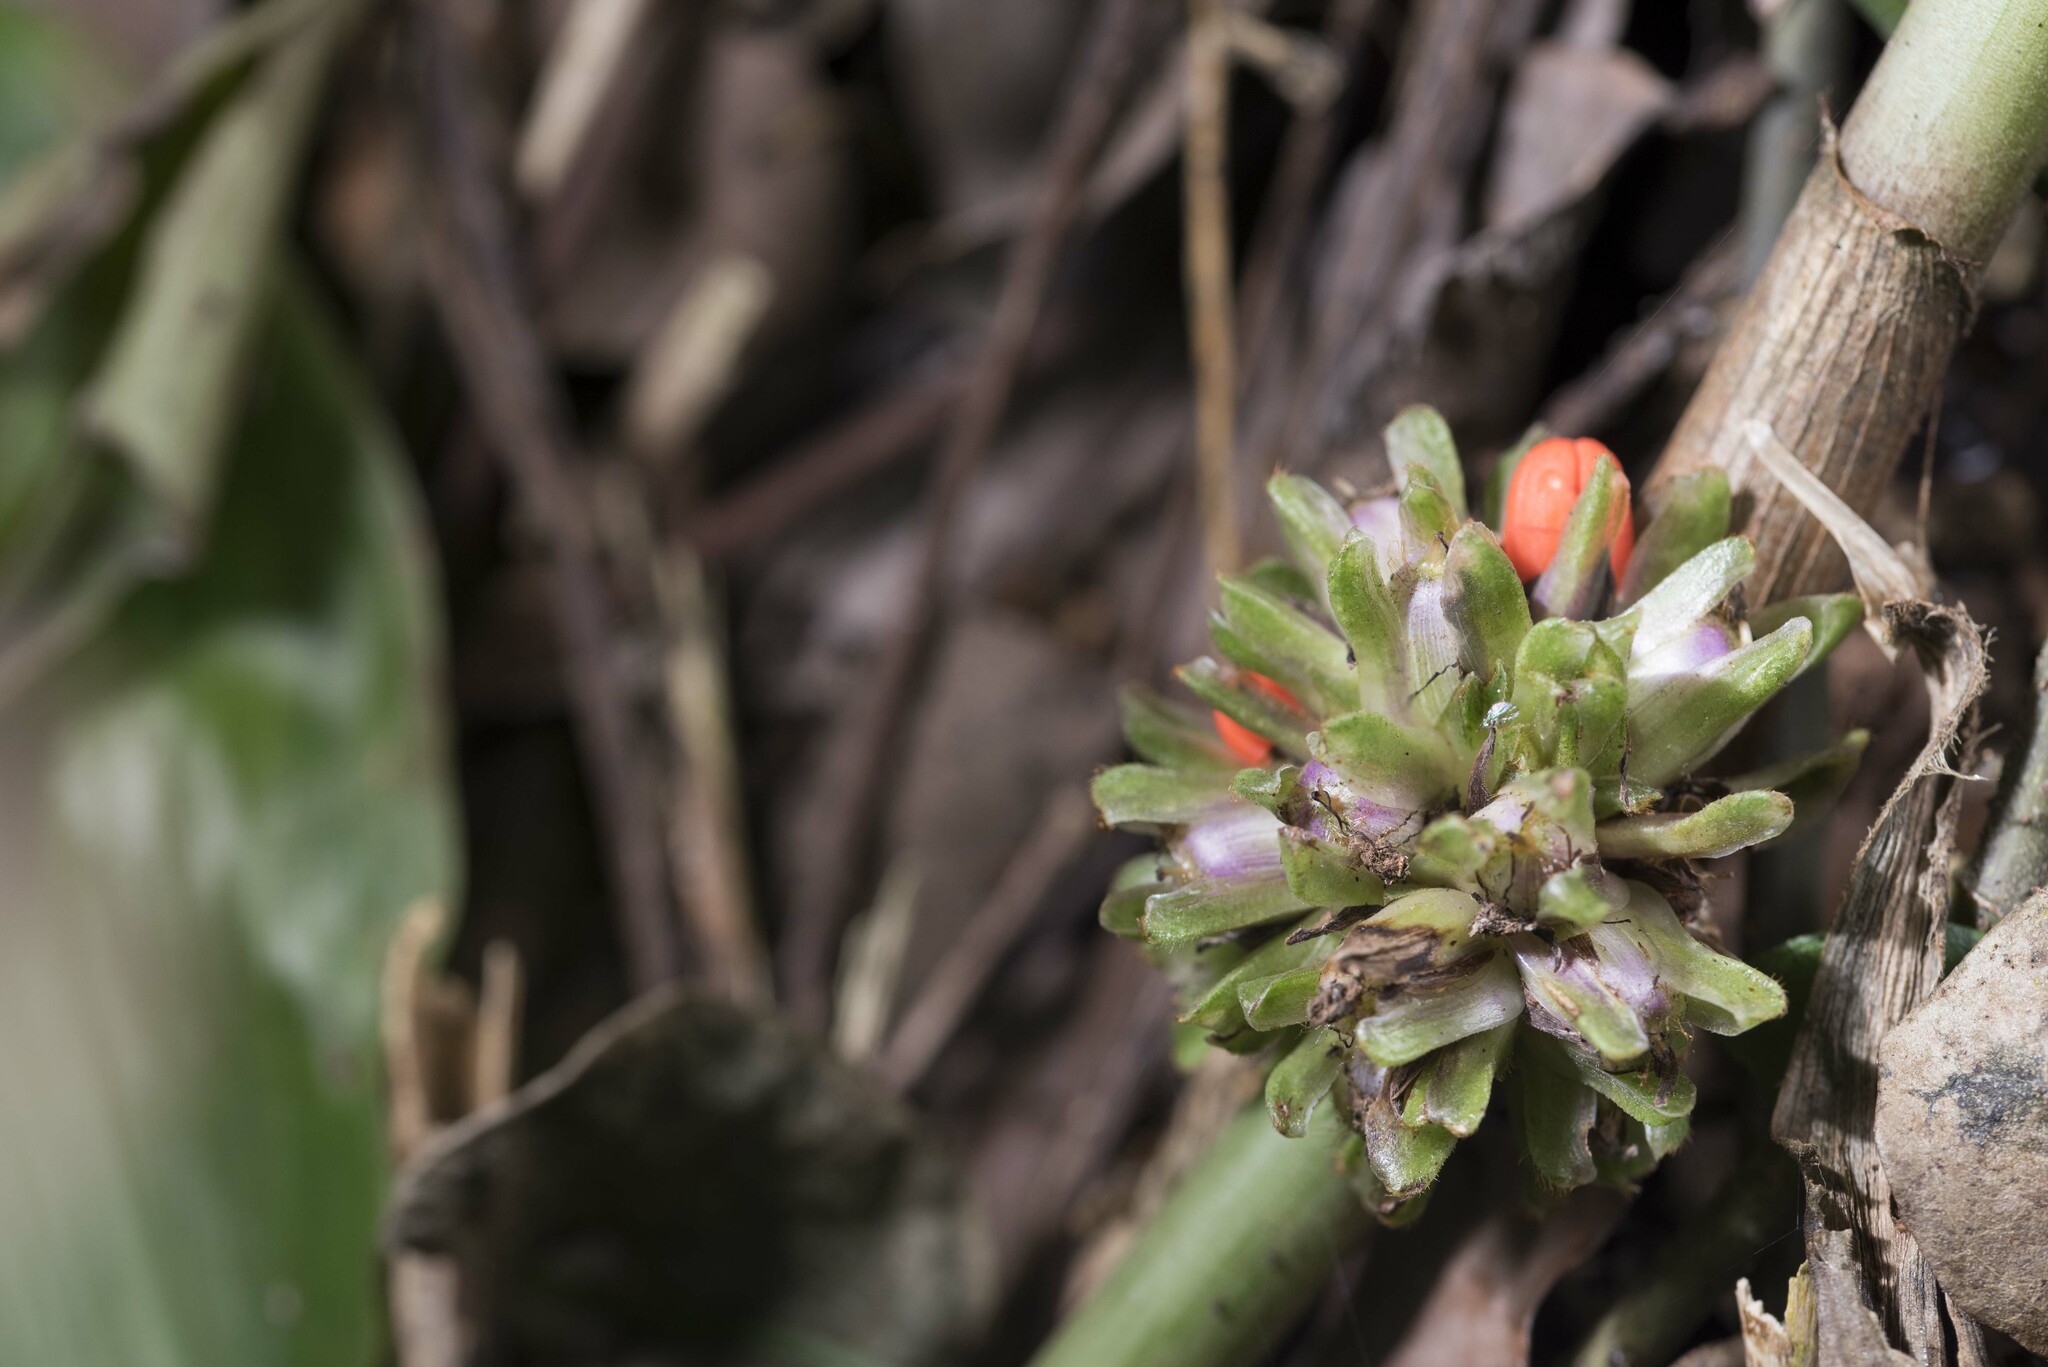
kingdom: Plantae
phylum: Tracheophyta
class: Liliopsida
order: Commelinales
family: Commelinaceae
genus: Amischotolype
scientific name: Amischotolype glabrata
